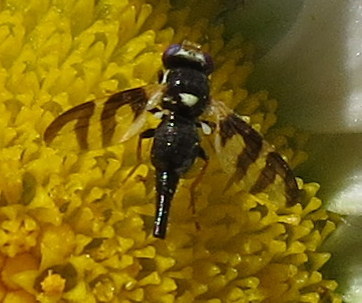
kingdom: Animalia
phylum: Arthropoda
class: Insecta
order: Diptera
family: Tephritidae
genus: Urophora
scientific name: Urophora quadrifasciata
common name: Knapweed seedhead fly
